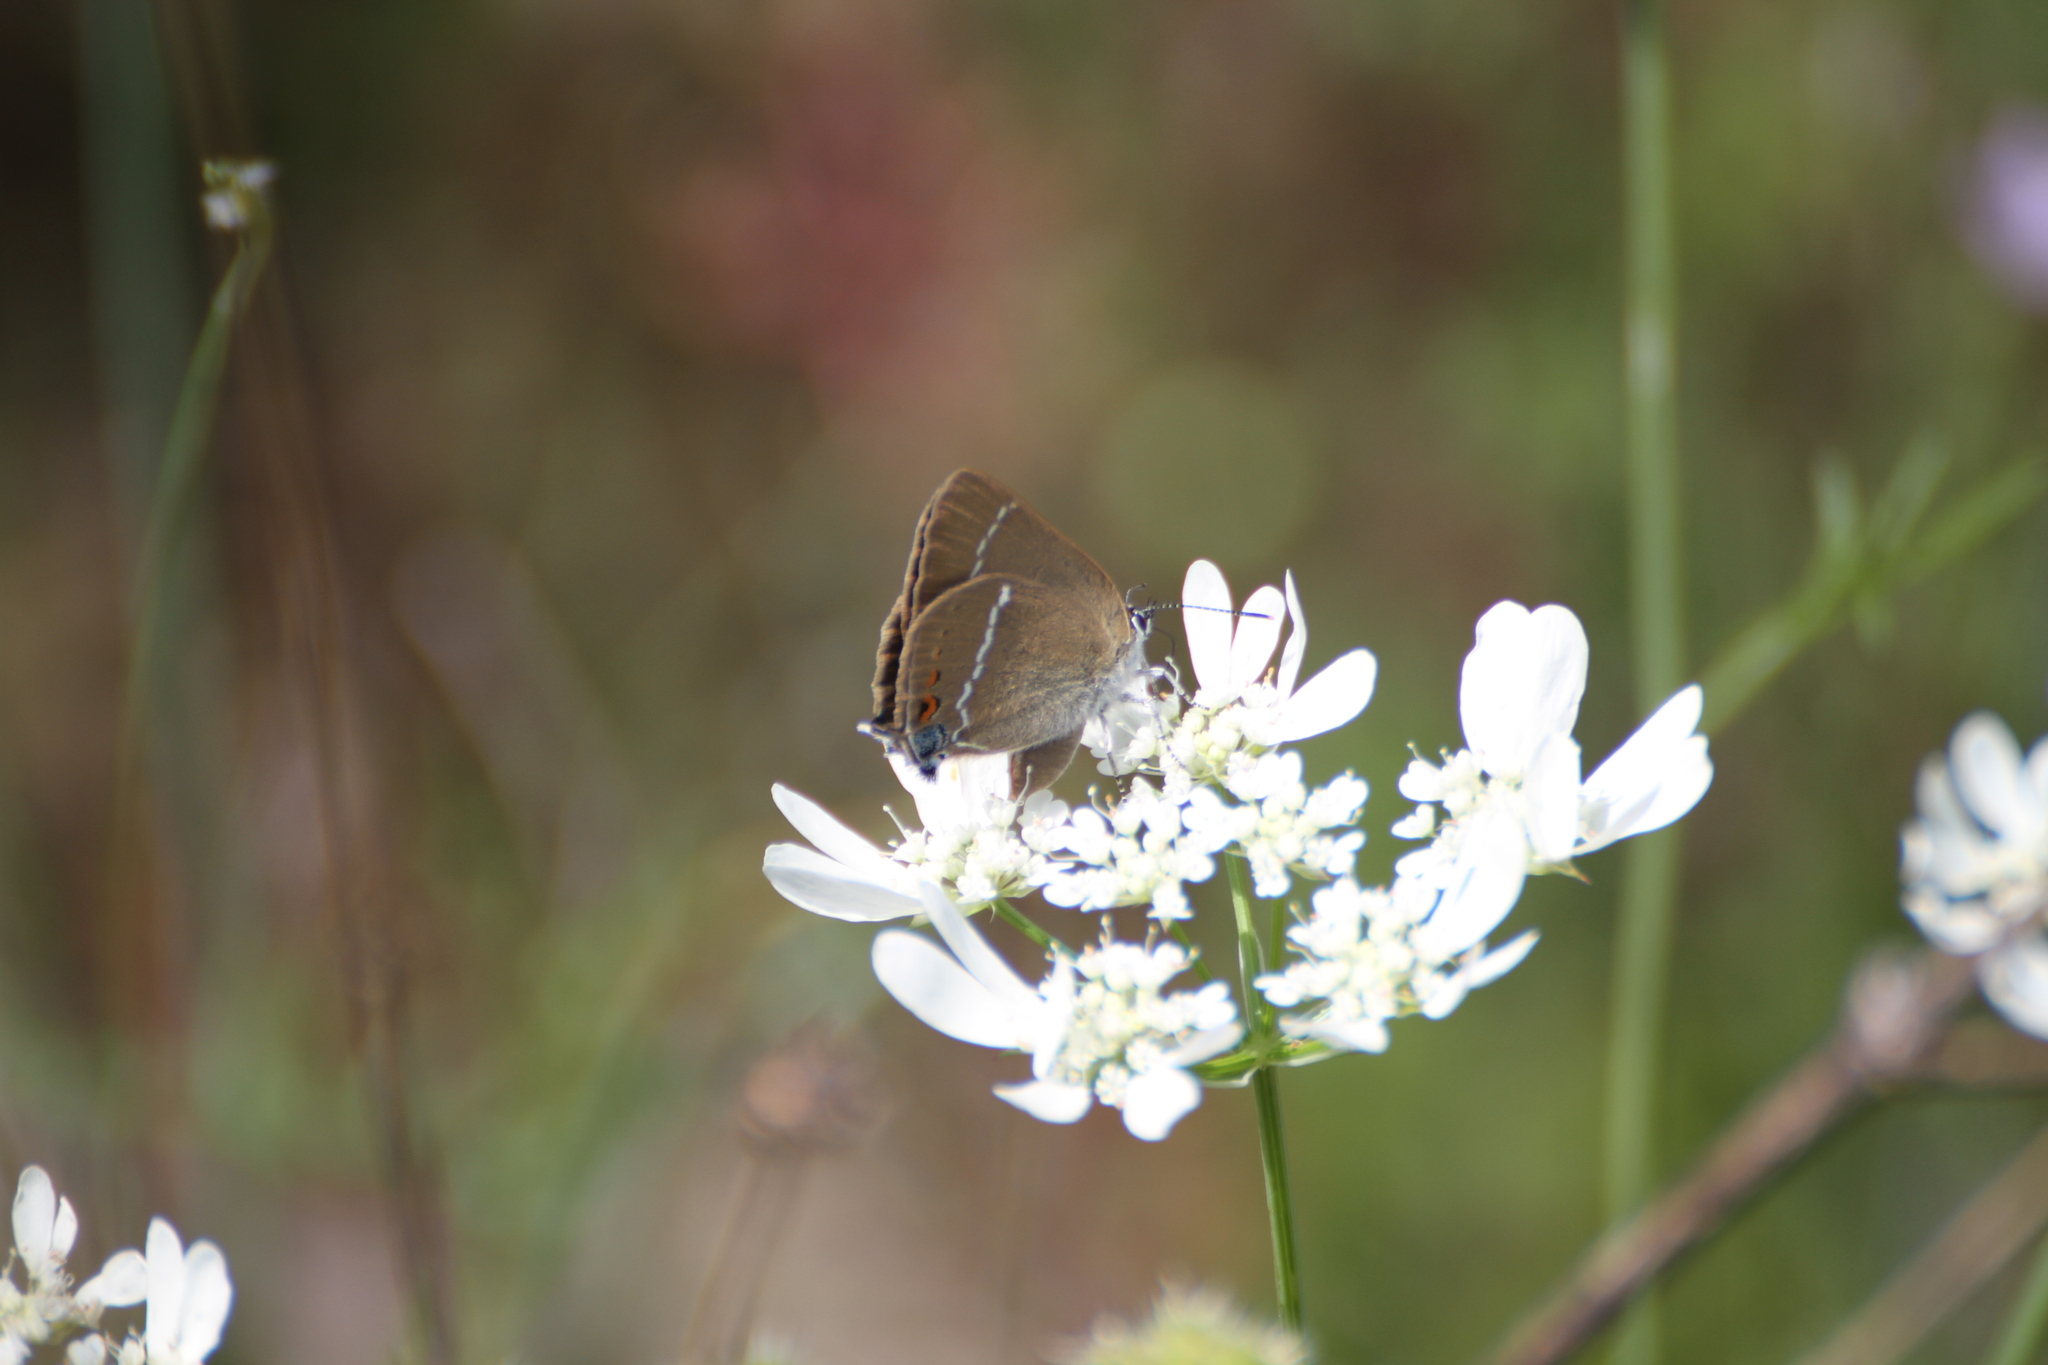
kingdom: Animalia
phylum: Arthropoda
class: Insecta
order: Lepidoptera
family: Lycaenidae
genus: Tuttiola
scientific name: Tuttiola spini
